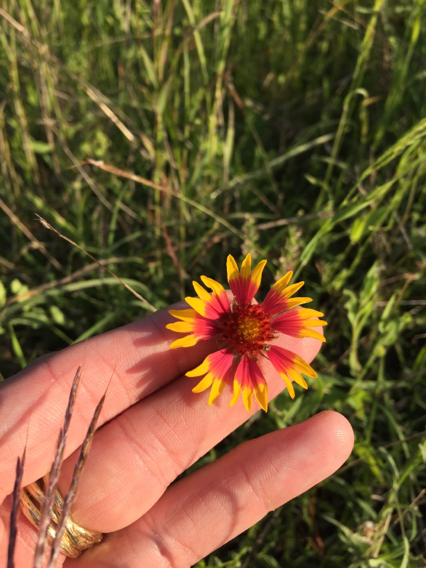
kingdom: Plantae
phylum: Tracheophyta
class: Magnoliopsida
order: Asterales
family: Asteraceae
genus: Gaillardia
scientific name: Gaillardia pulchella
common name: Firewheel
